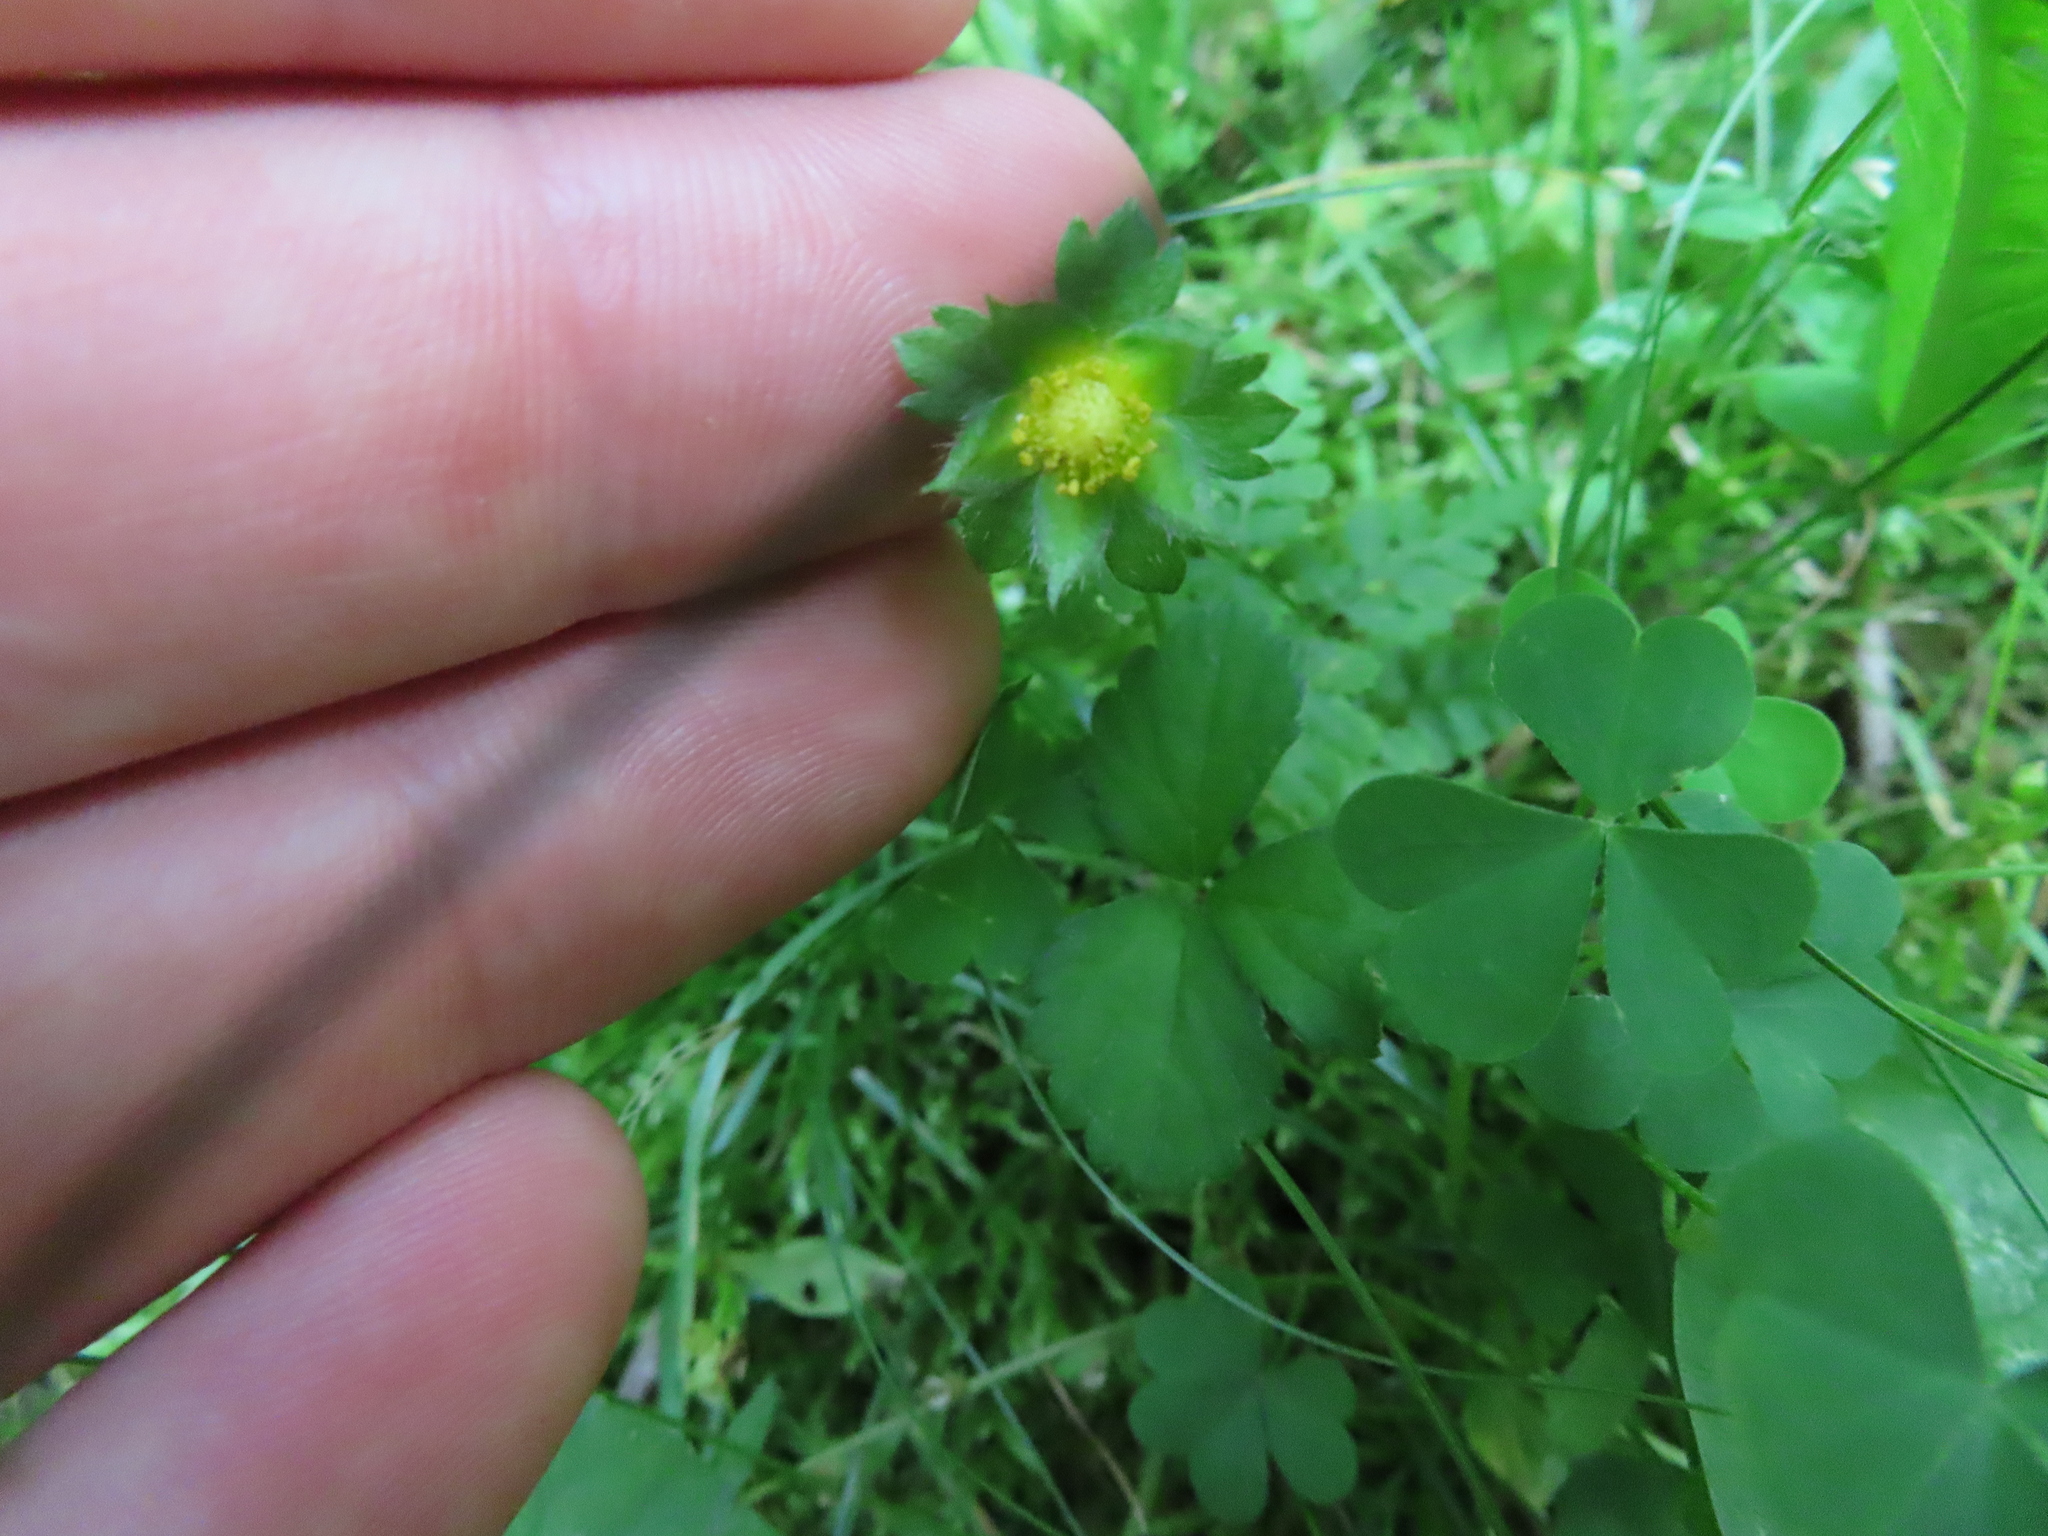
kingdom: Plantae
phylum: Tracheophyta
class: Magnoliopsida
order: Rosales
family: Rosaceae
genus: Potentilla
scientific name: Potentilla indica
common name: Yellow-flowered strawberry
